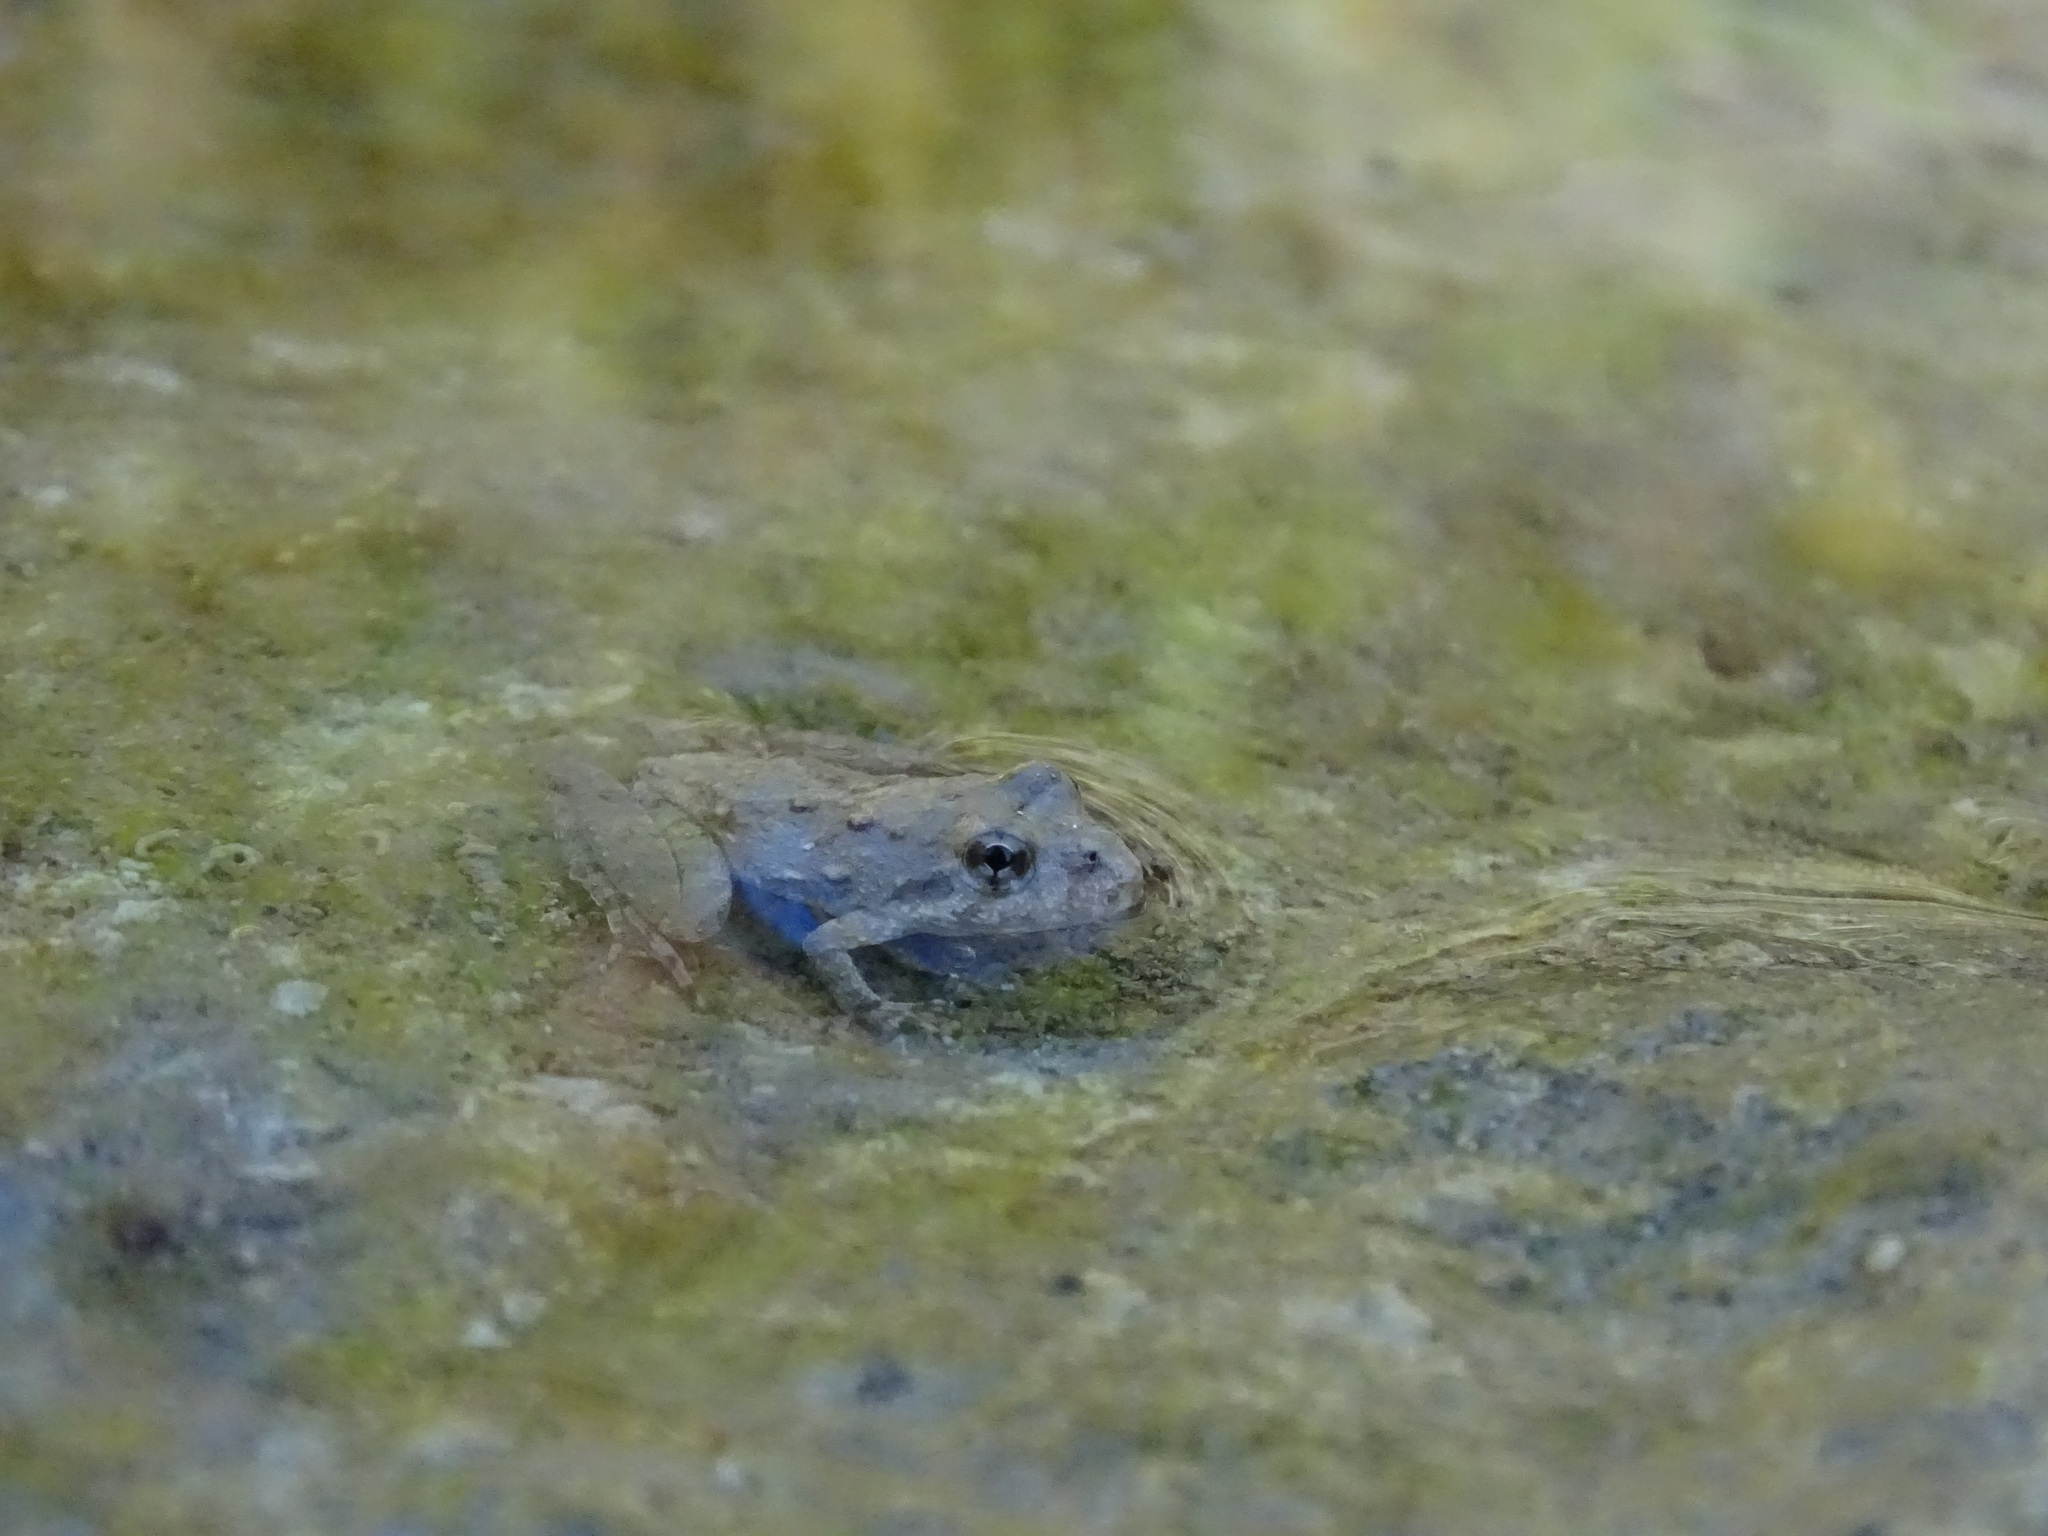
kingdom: Animalia
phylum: Chordata
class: Amphibia
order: Anura
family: Hylidae
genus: Acris
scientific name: Acris blanchardi
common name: Blanchard's cricket frog
